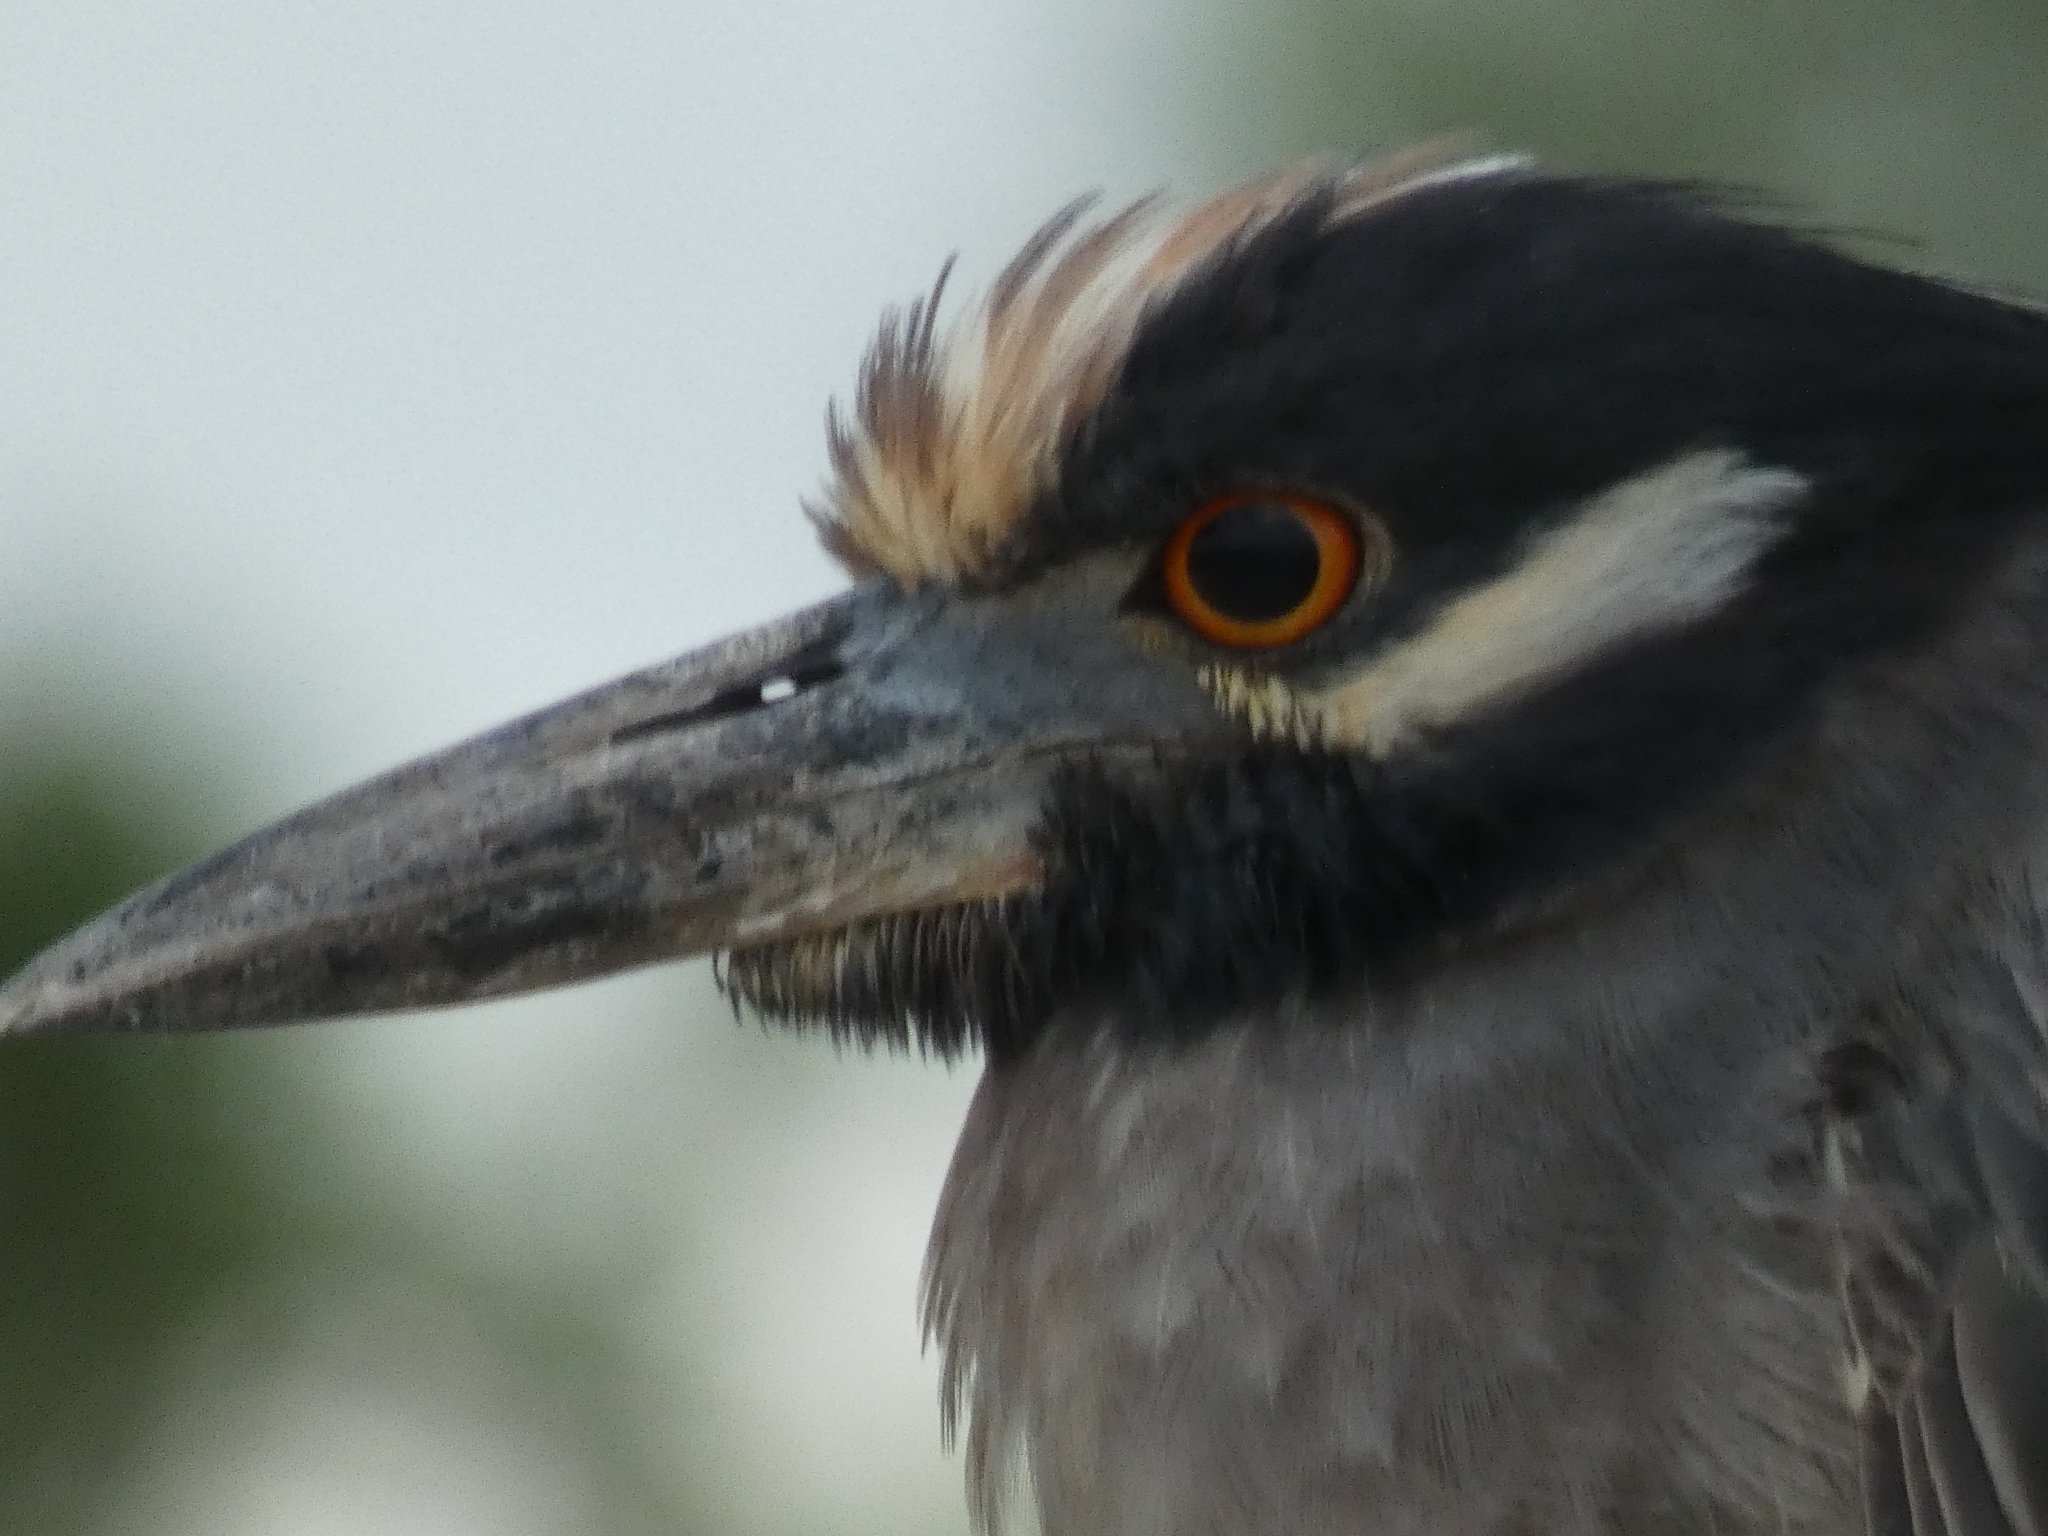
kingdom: Animalia
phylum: Chordata
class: Aves
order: Pelecaniformes
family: Ardeidae
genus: Nyctanassa
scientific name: Nyctanassa violacea
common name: Yellow-crowned night heron
